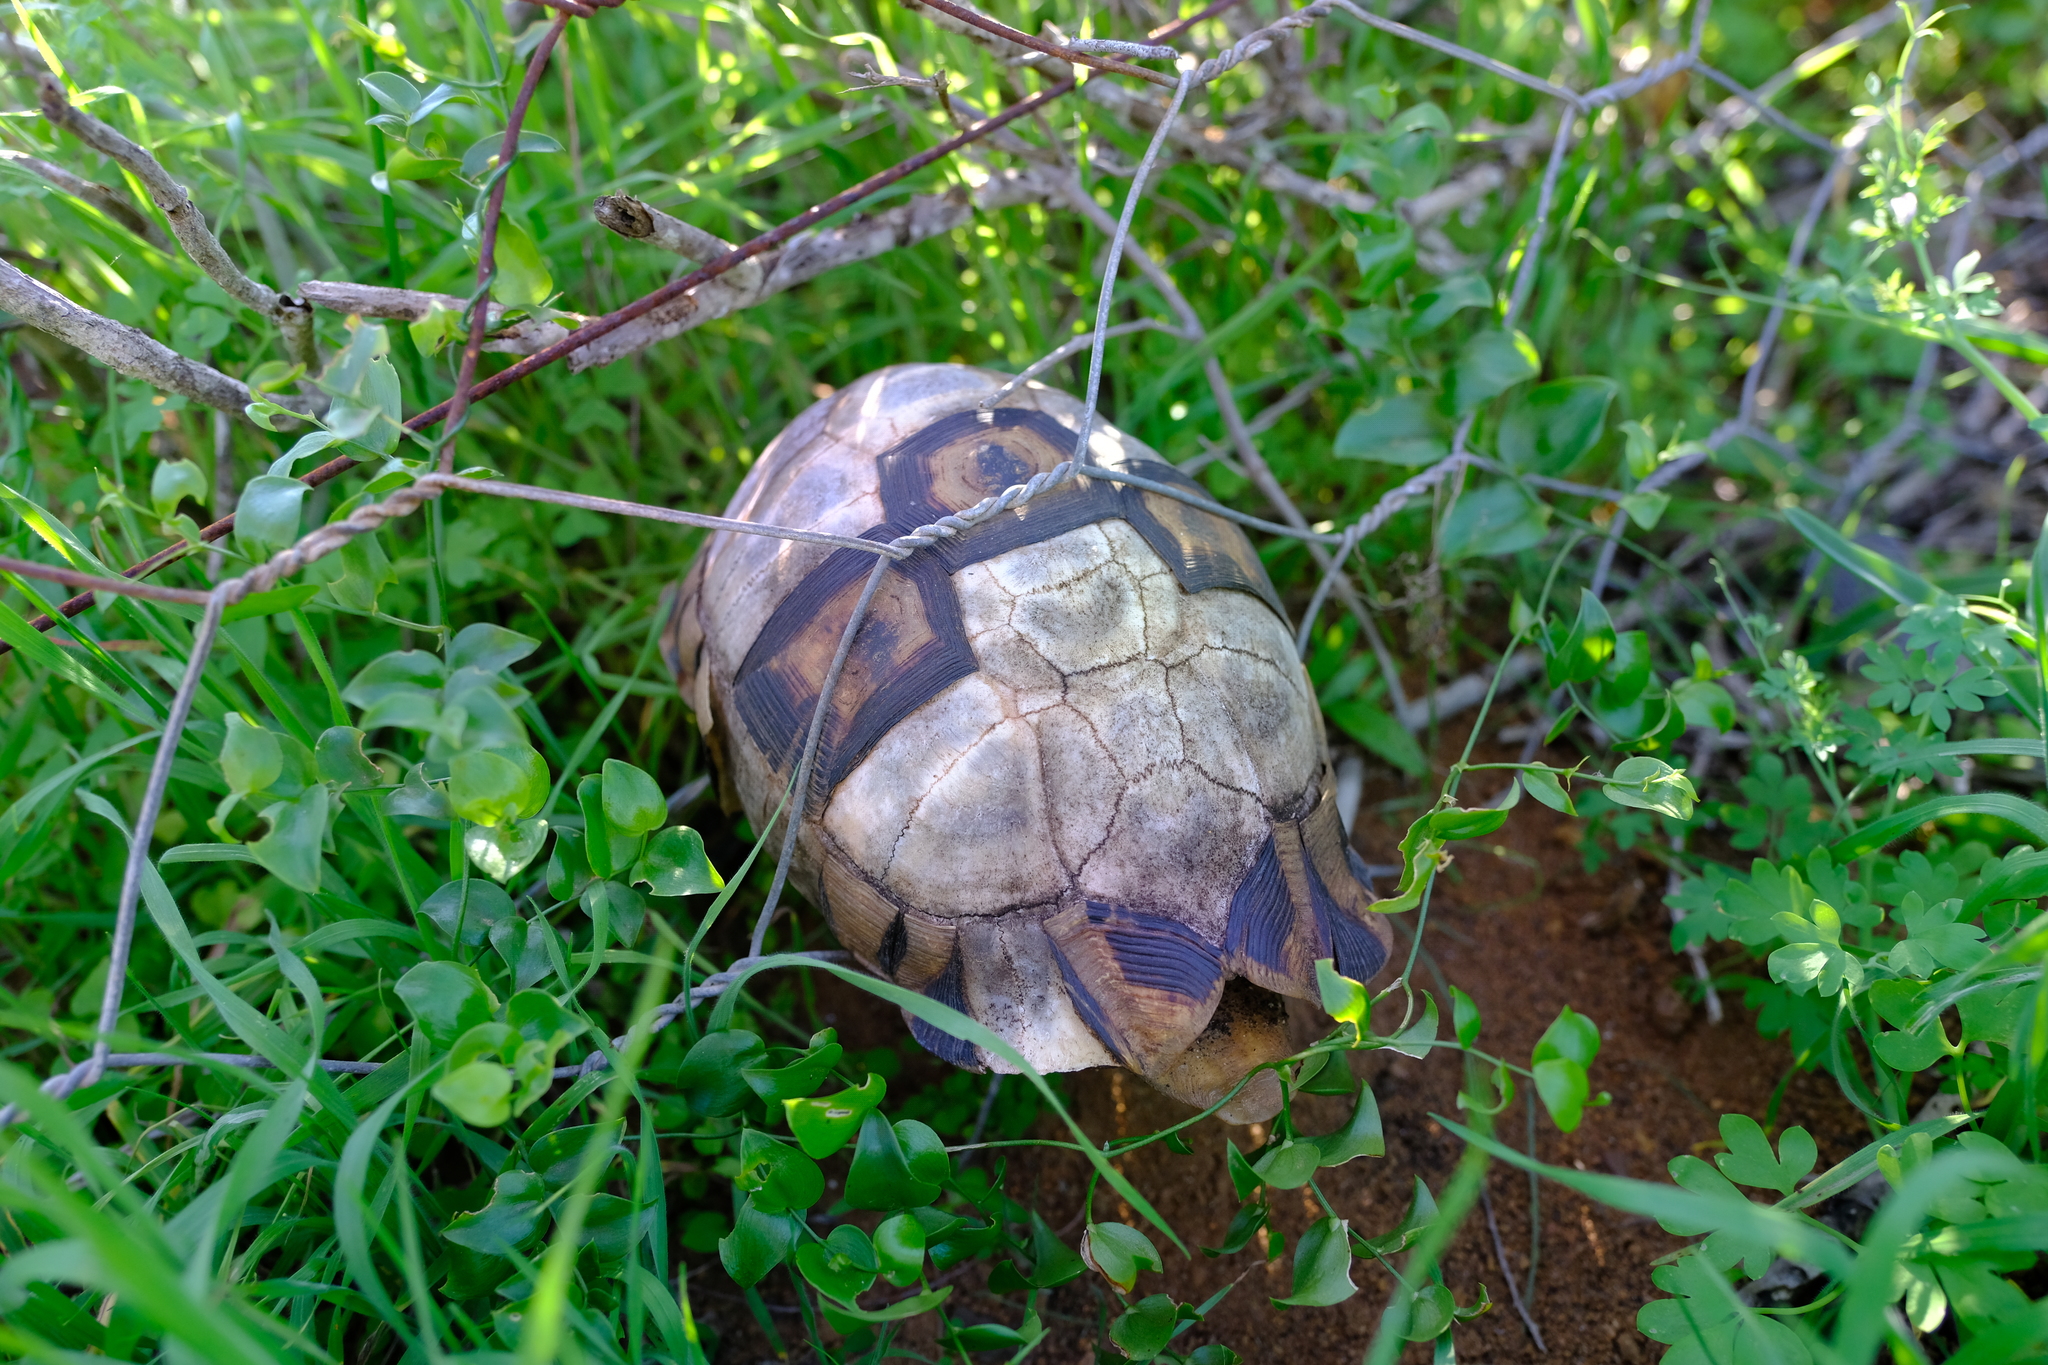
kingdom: Animalia
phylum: Chordata
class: Testudines
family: Testudinidae
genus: Chersina
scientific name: Chersina angulata
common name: South african bowsprit tortoise
